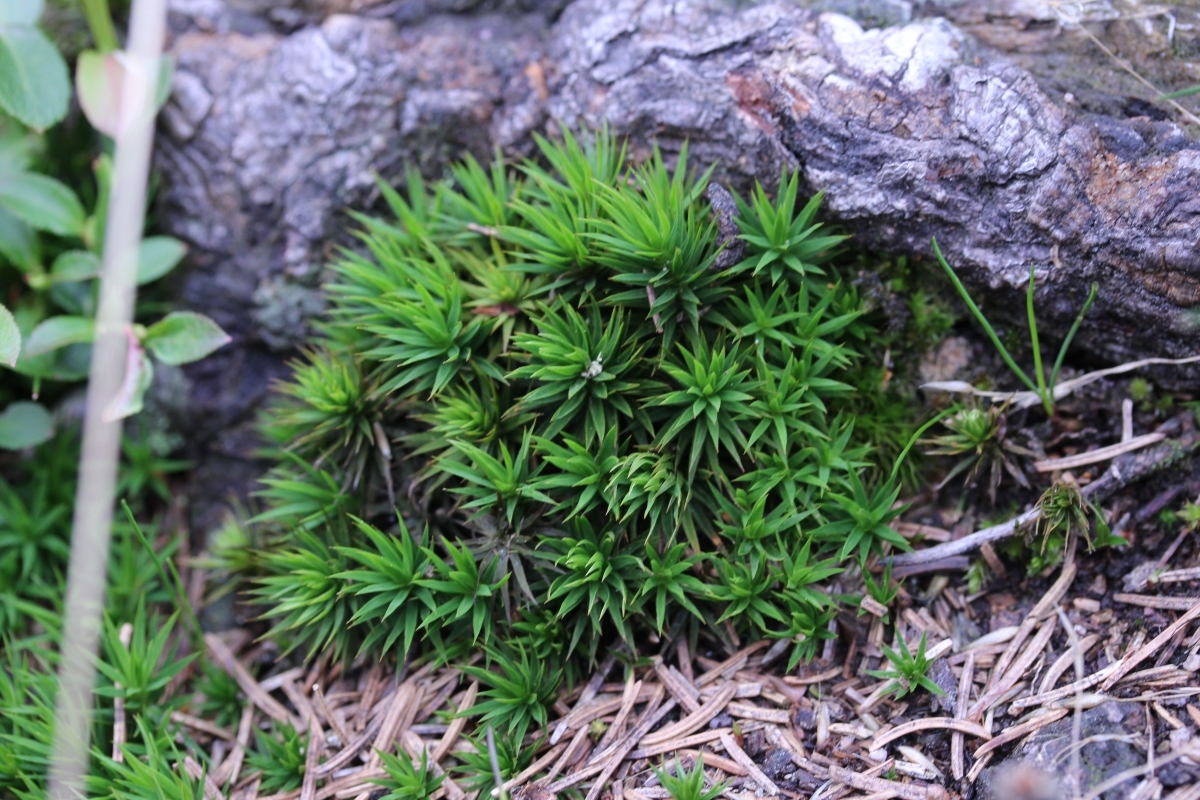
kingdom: Plantae
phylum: Bryophyta
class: Polytrichopsida
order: Polytrichales
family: Polytrichaceae
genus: Polytrichum
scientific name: Polytrichum formosum
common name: Bank haircap moss
